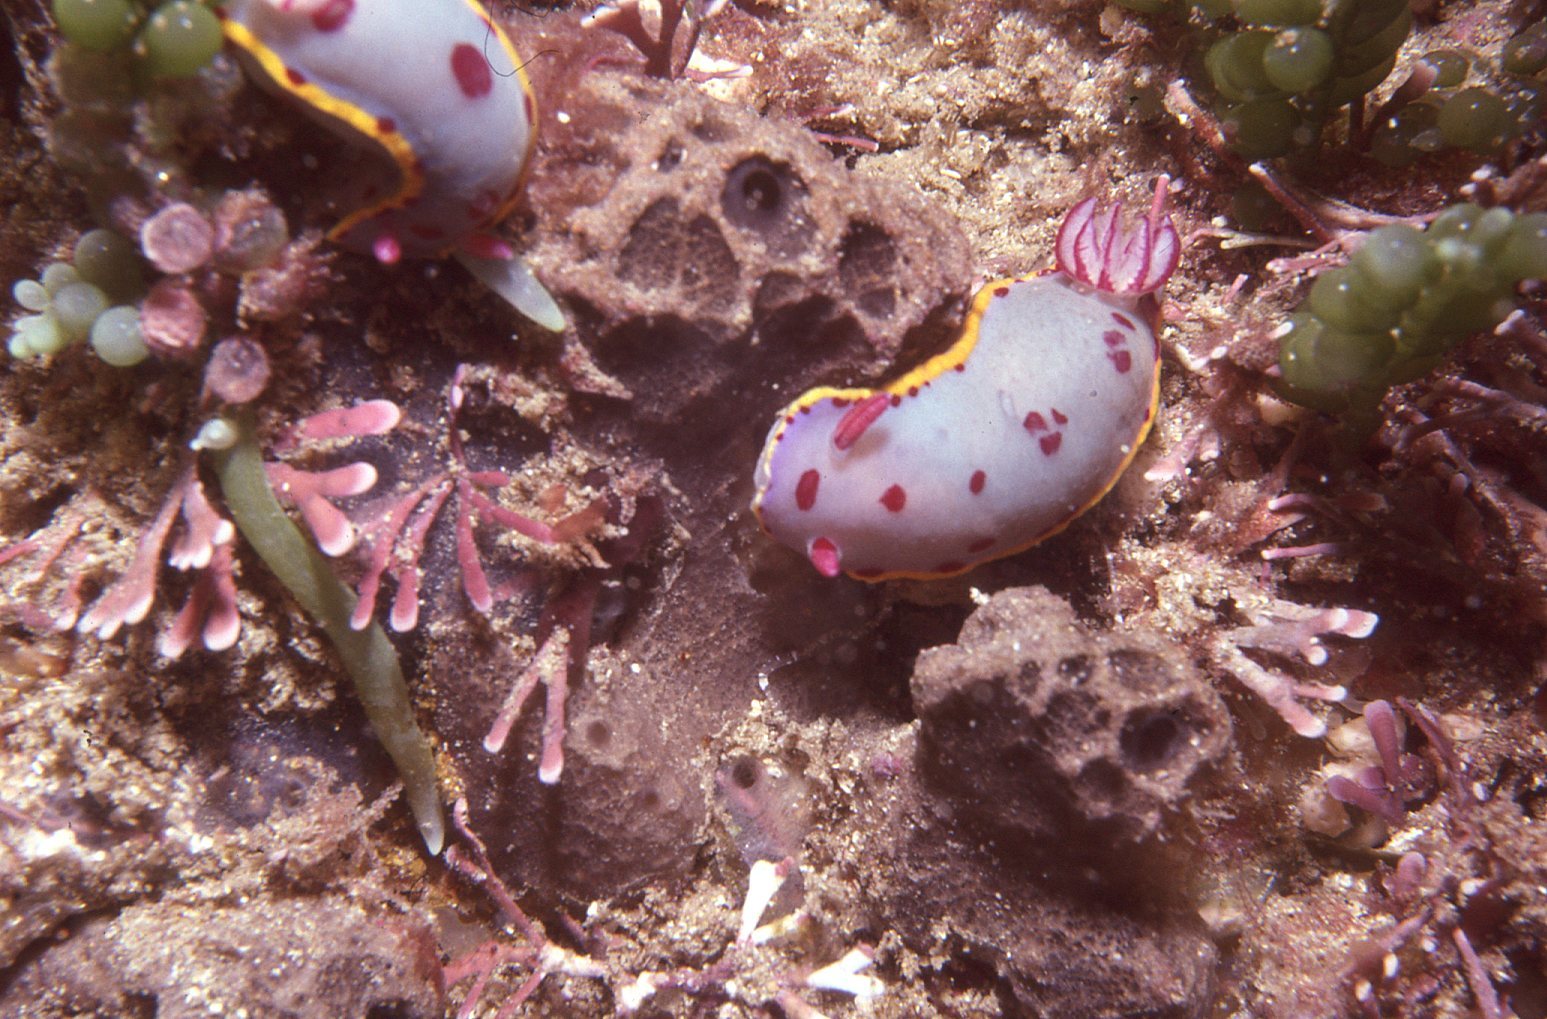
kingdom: Animalia
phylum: Mollusca
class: Gastropoda
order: Nudibranchia
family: Chromodorididae
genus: Hypselodoris
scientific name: Hypselodoris bennetti
